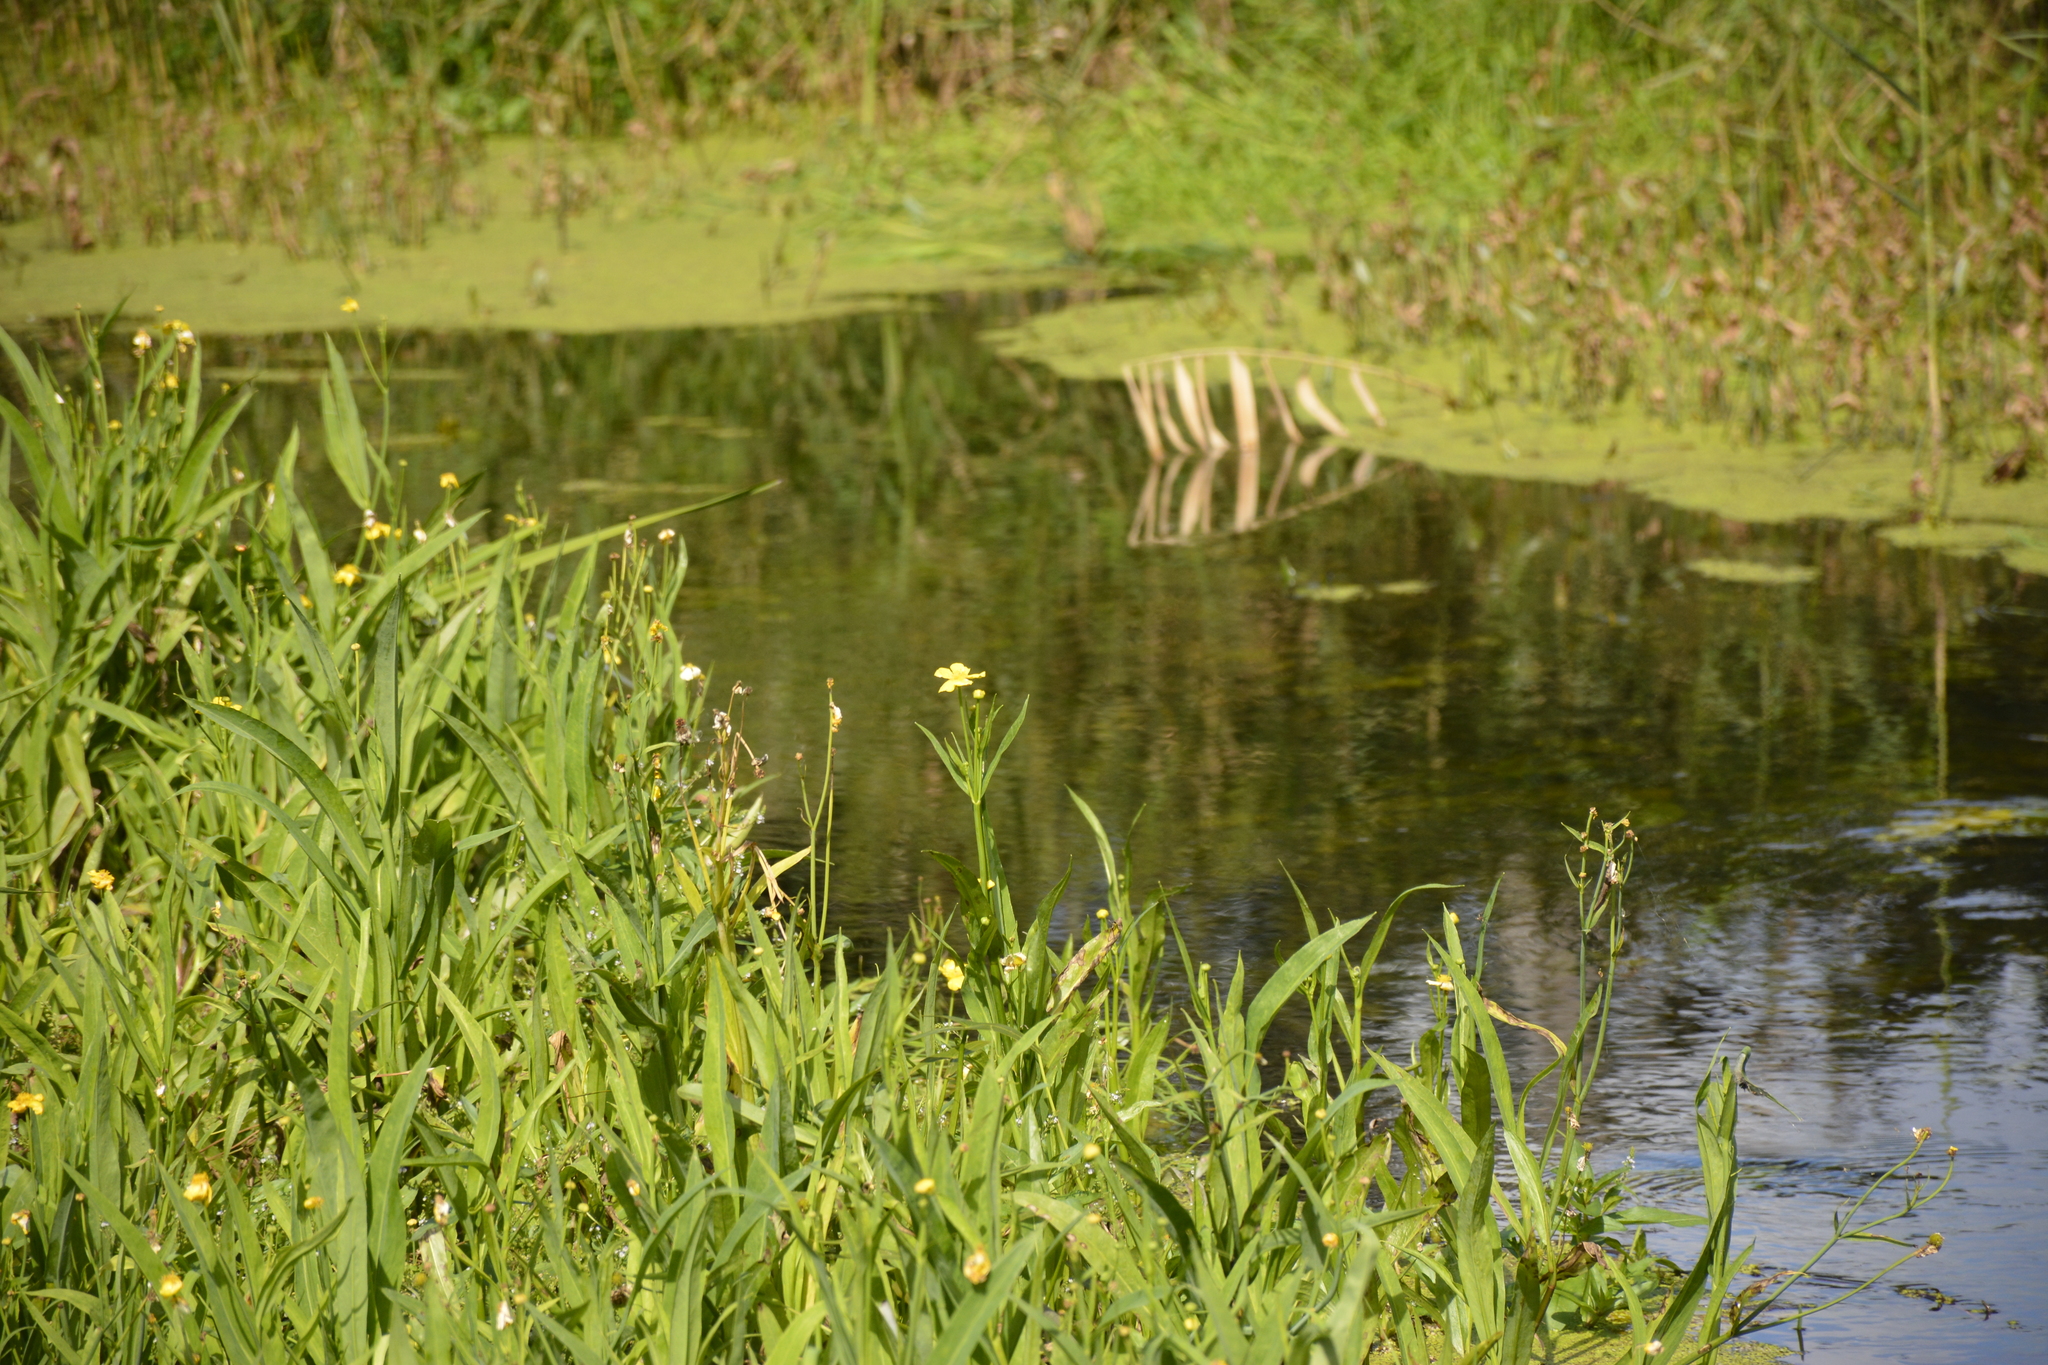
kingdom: Plantae
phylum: Tracheophyta
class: Magnoliopsida
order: Ranunculales
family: Ranunculaceae
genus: Ranunculus
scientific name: Ranunculus lingua
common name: Greater spearwort
